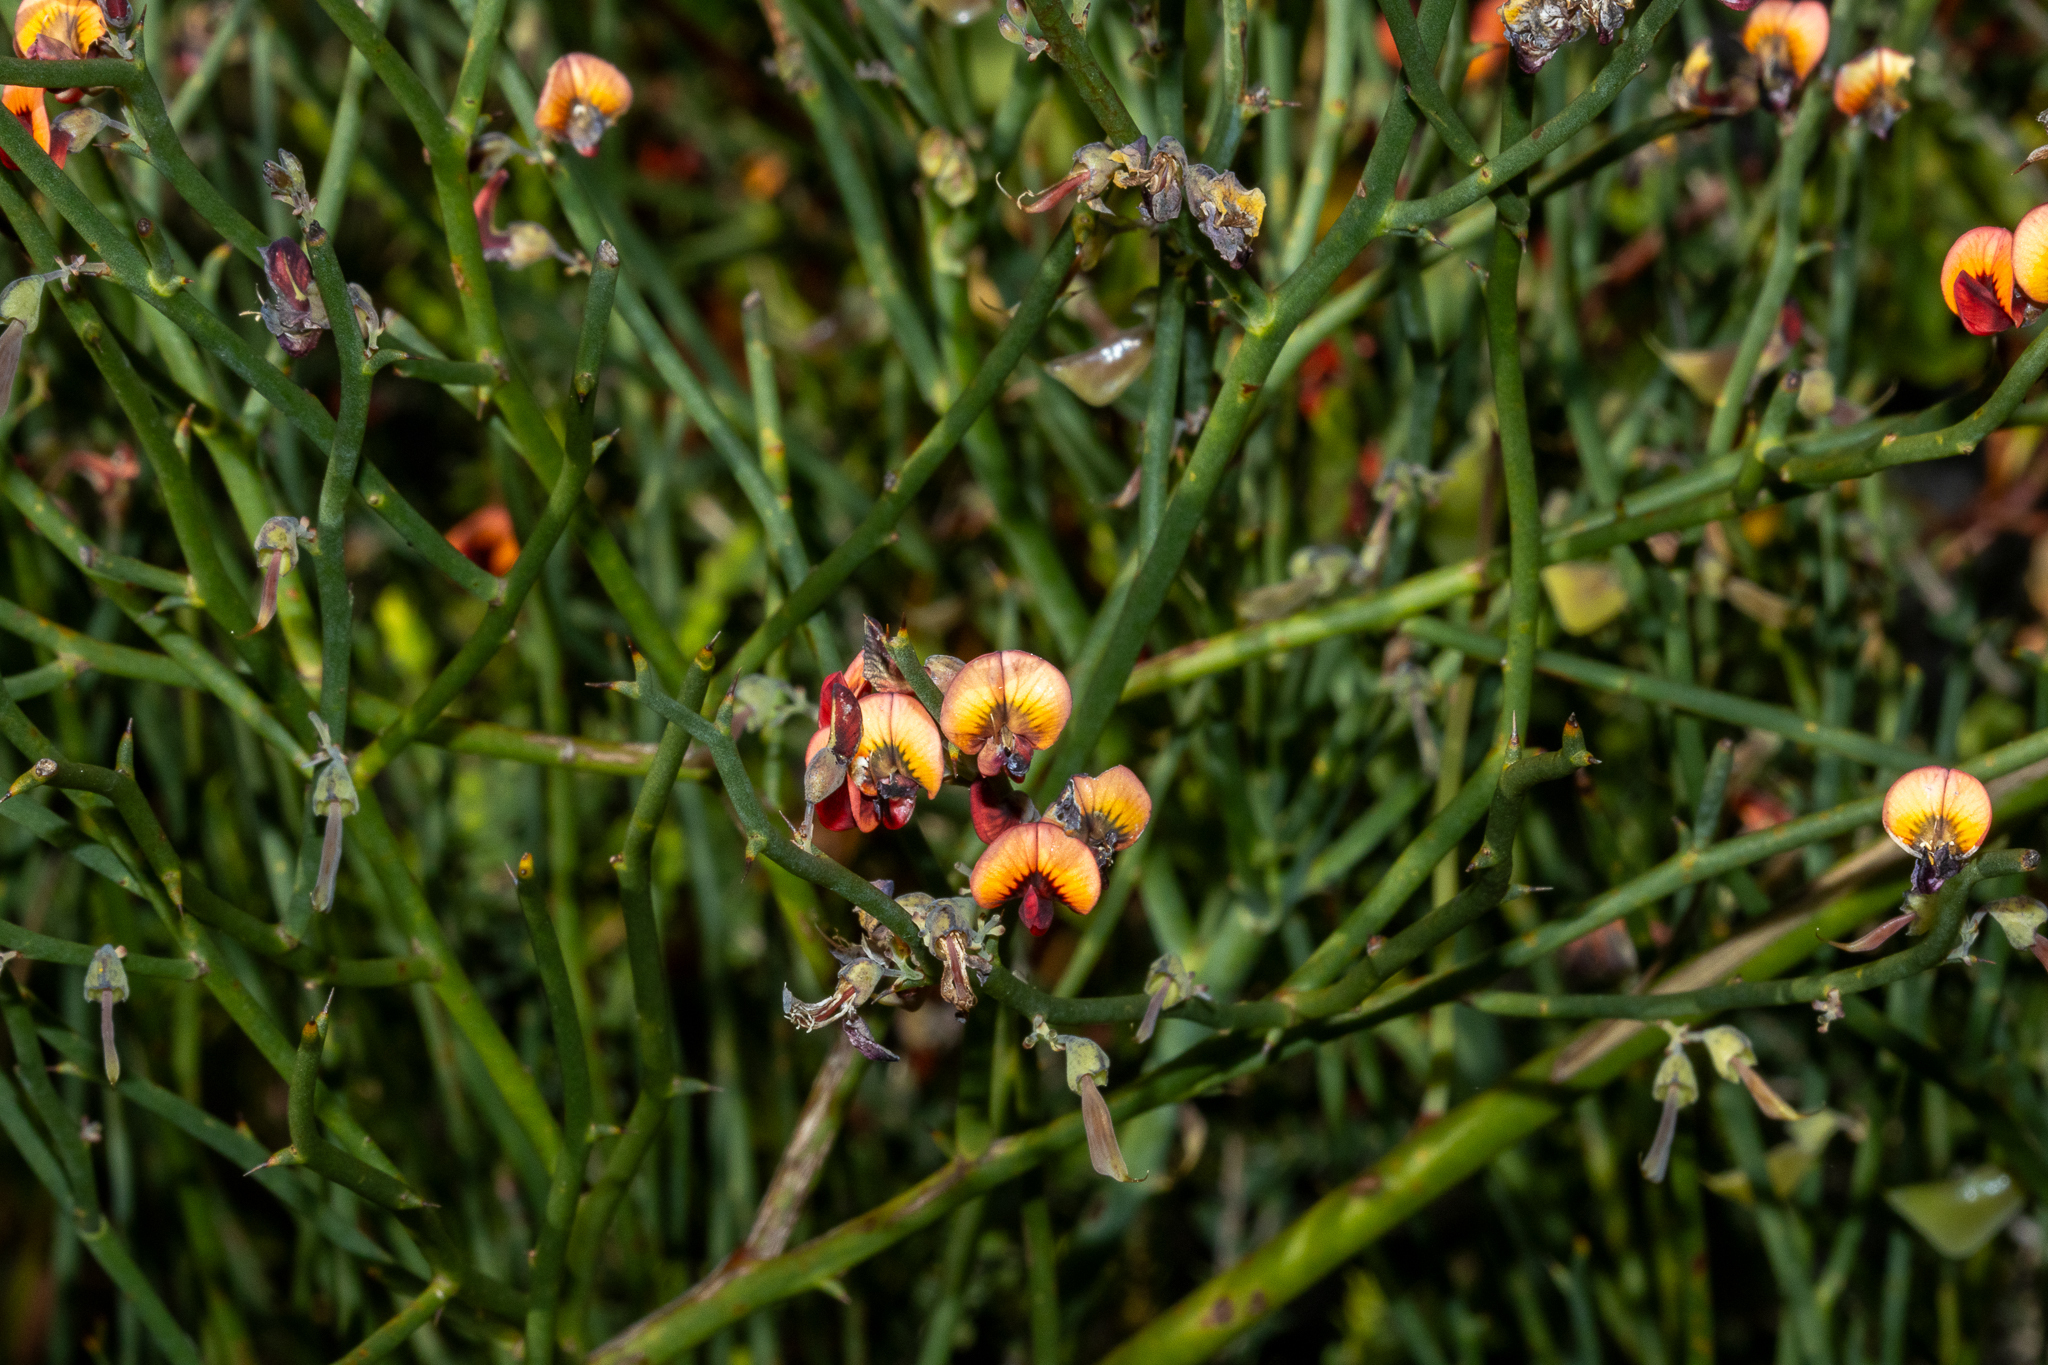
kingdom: Plantae
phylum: Tracheophyta
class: Magnoliopsida
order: Fabales
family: Fabaceae
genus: Daviesia
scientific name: Daviesia brevifolia
